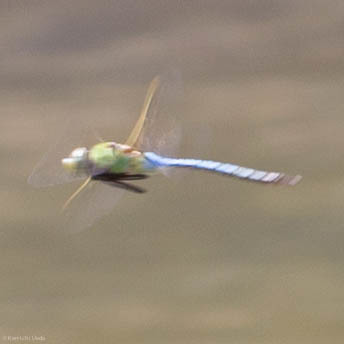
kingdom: Animalia
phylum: Arthropoda
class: Insecta
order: Odonata
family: Aeshnidae
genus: Anax
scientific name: Anax junius
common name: Common green darner
